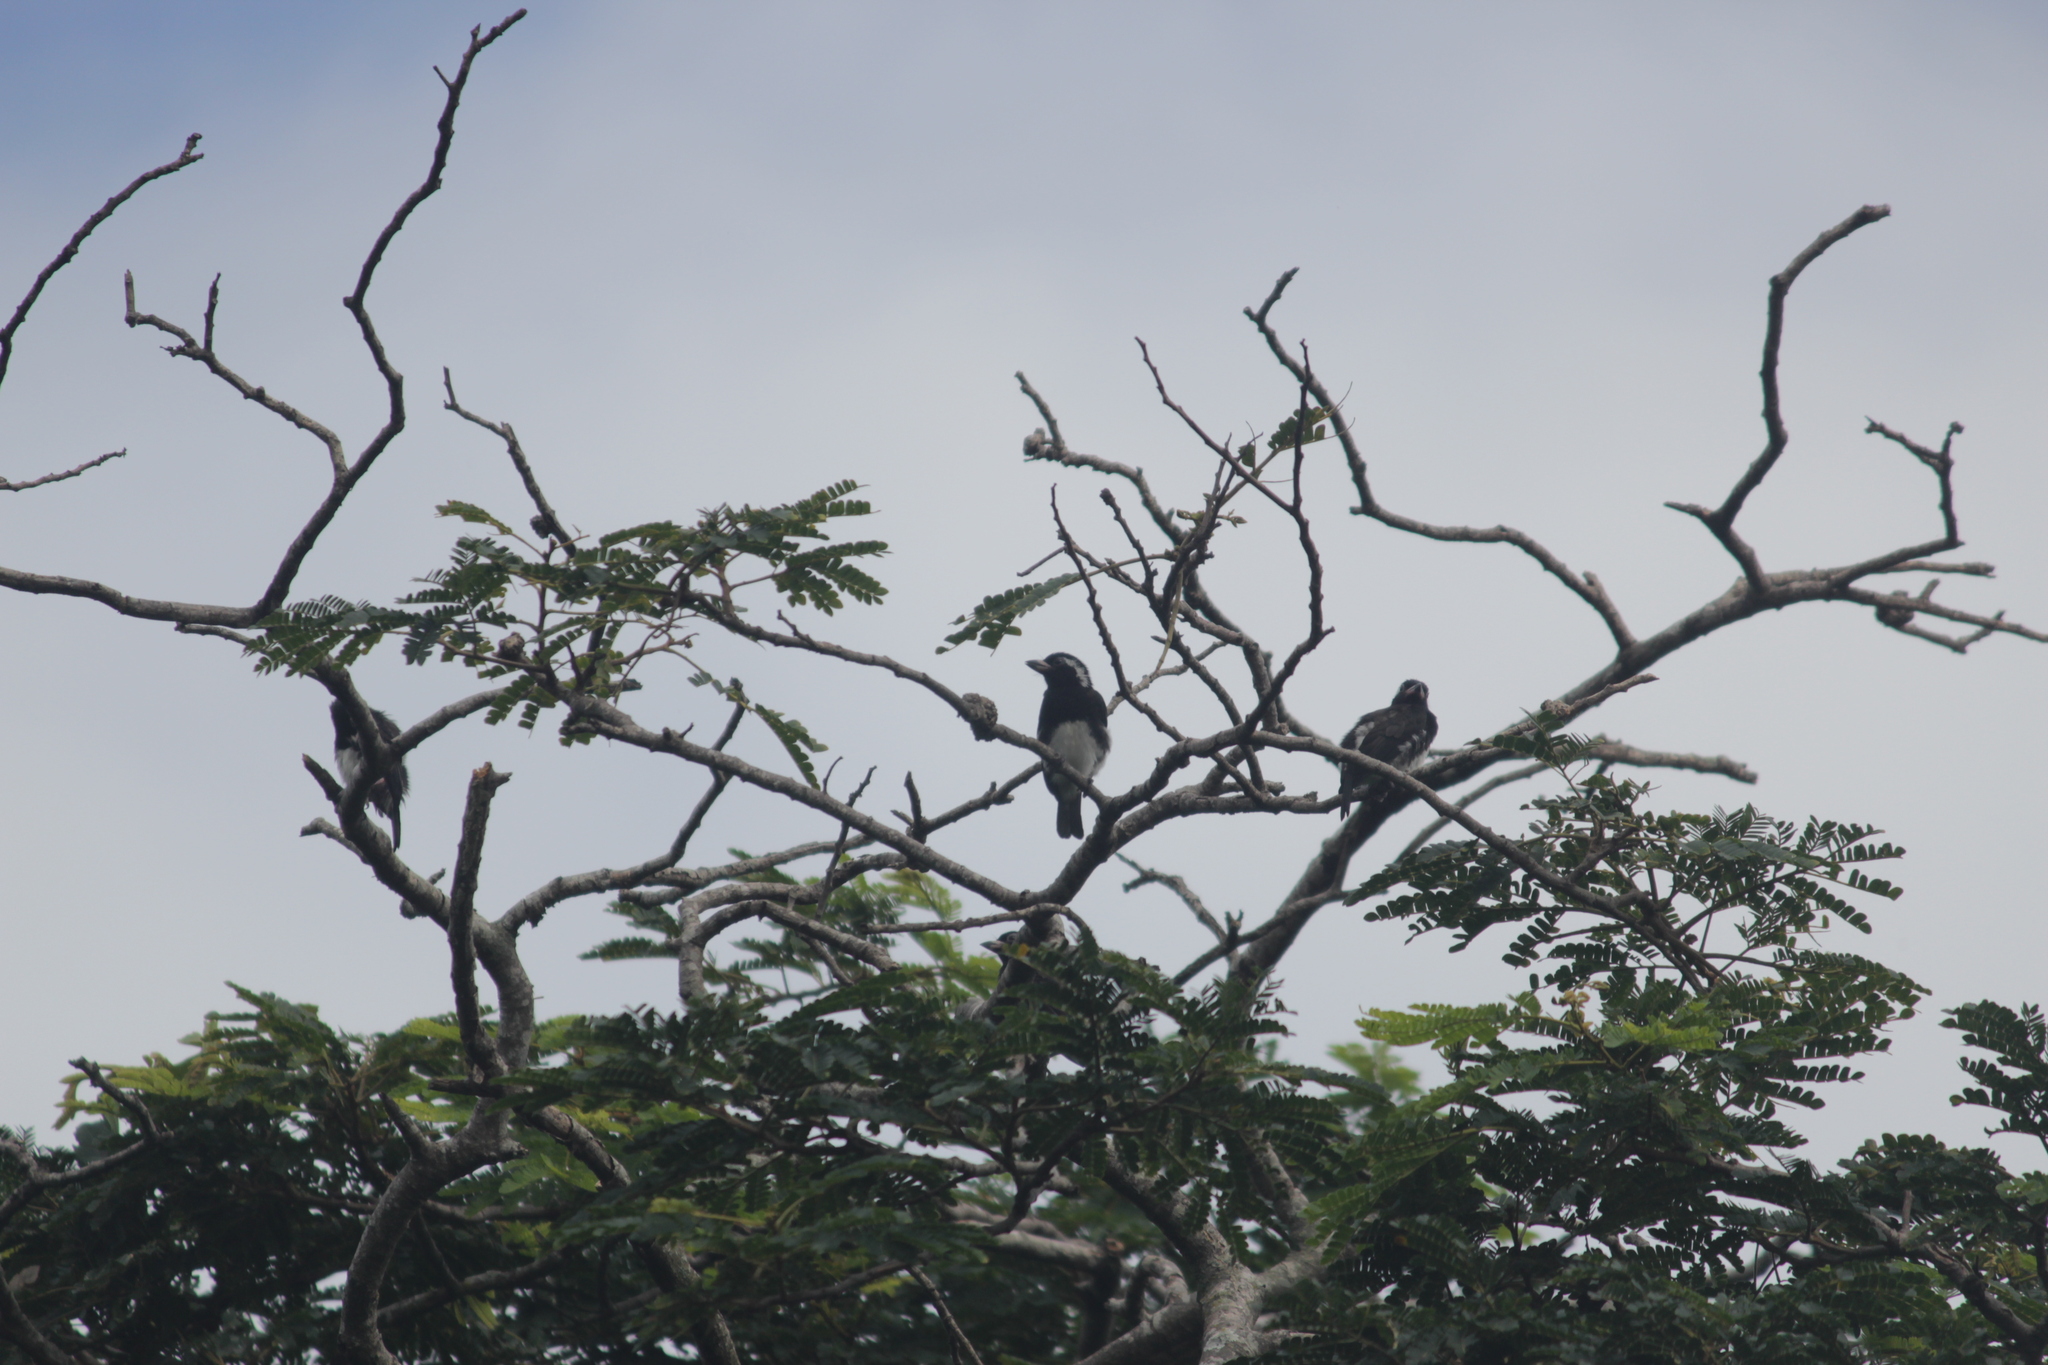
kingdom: Animalia
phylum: Chordata
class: Aves
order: Piciformes
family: Lybiidae
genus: Stactolaema
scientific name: Stactolaema leucotis
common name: White-eared barbet
